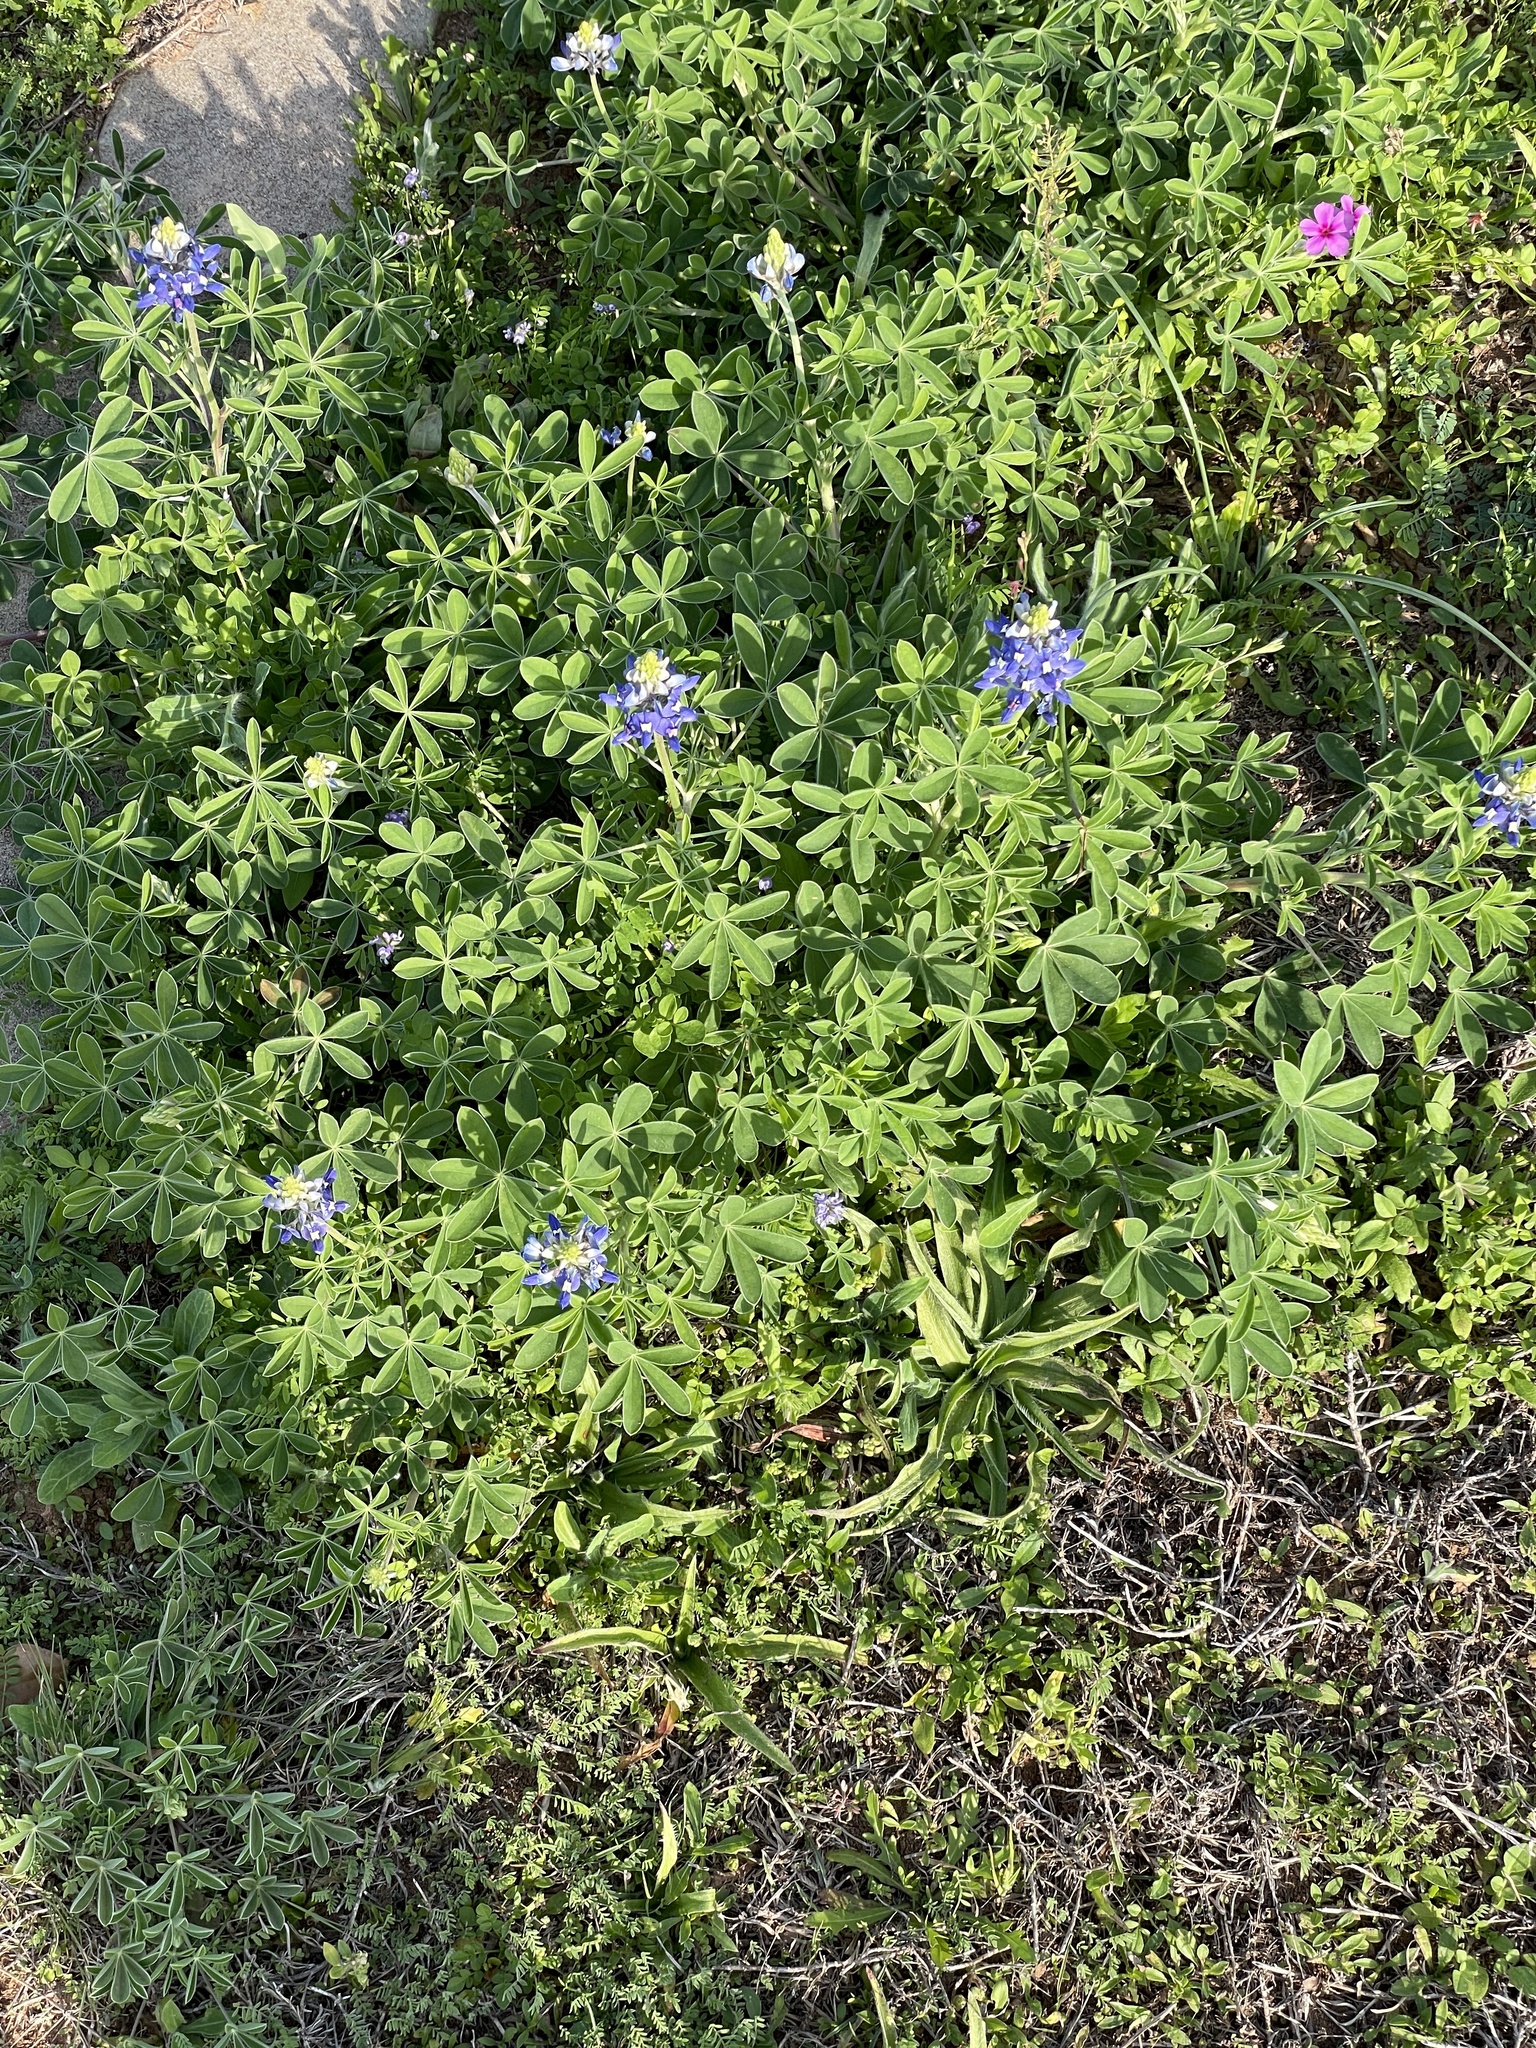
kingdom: Plantae
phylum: Tracheophyta
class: Magnoliopsida
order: Fabales
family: Fabaceae
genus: Lupinus
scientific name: Lupinus texensis
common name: Texas bluebonnet
